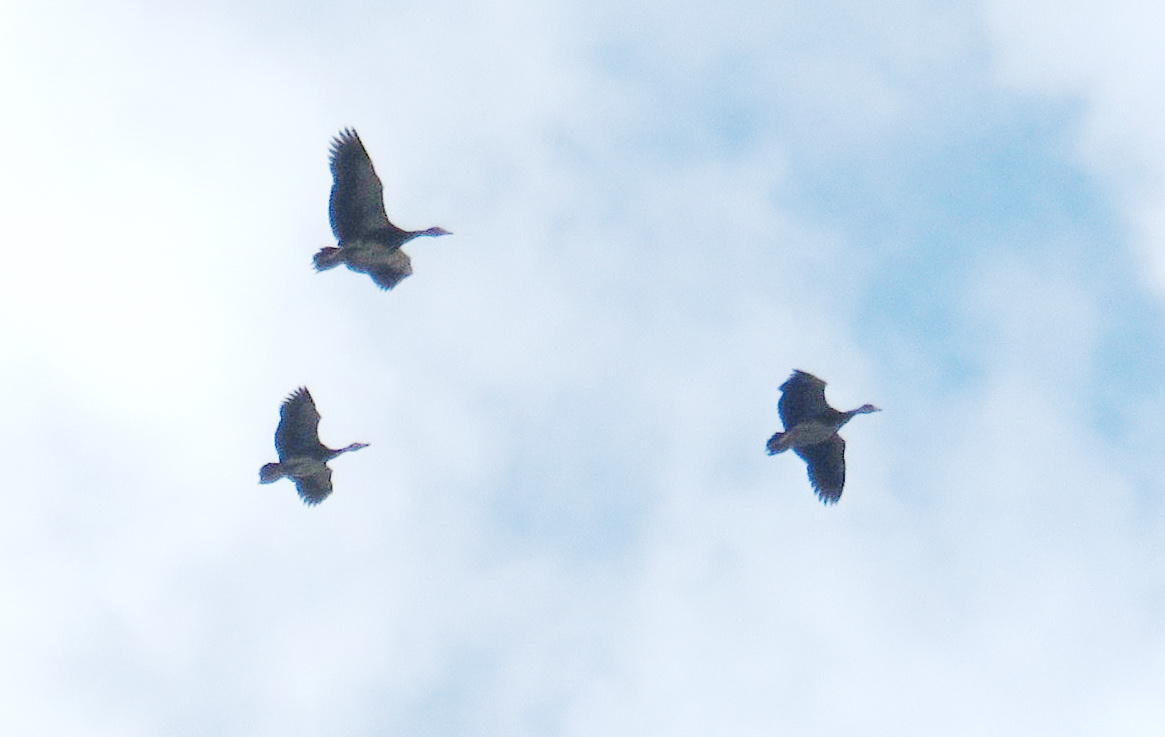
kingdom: Animalia
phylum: Chordata
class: Aves
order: Anseriformes
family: Anatidae
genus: Plectropterus
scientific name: Plectropterus gambensis
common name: Spur-winged goose
